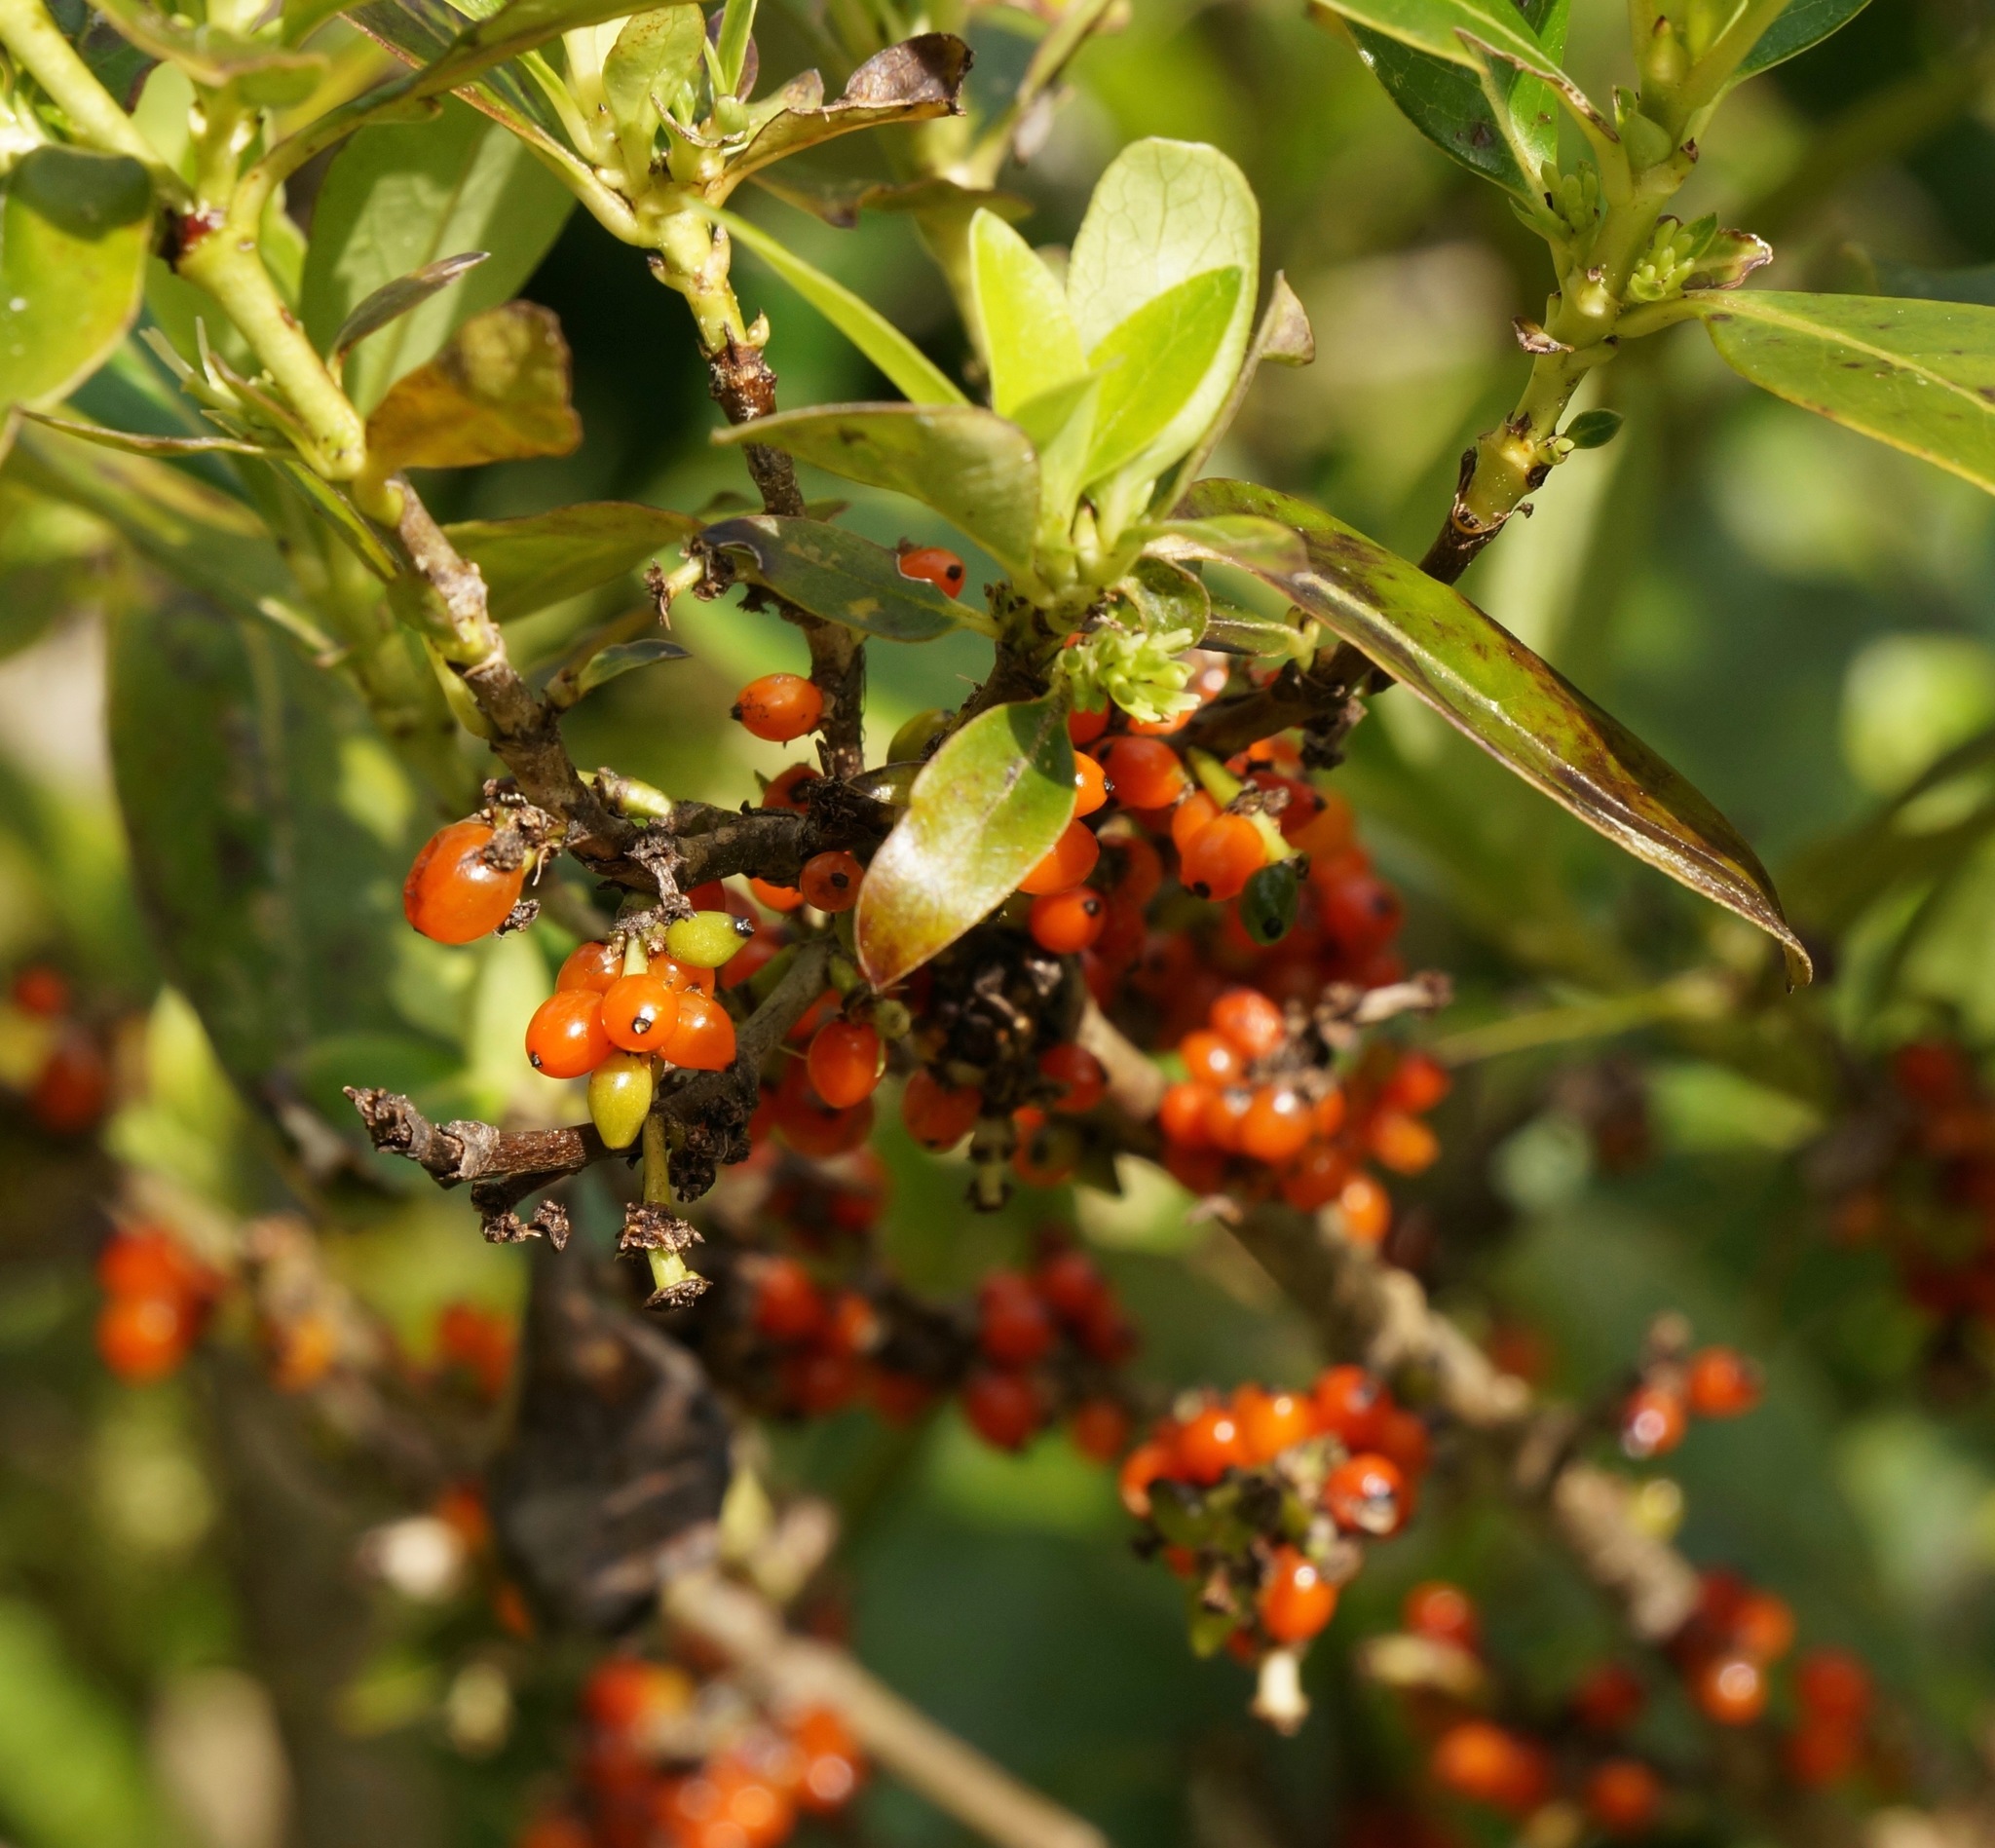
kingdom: Plantae
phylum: Tracheophyta
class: Magnoliopsida
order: Gentianales
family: Rubiaceae
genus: Coprosma
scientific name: Coprosma robusta
